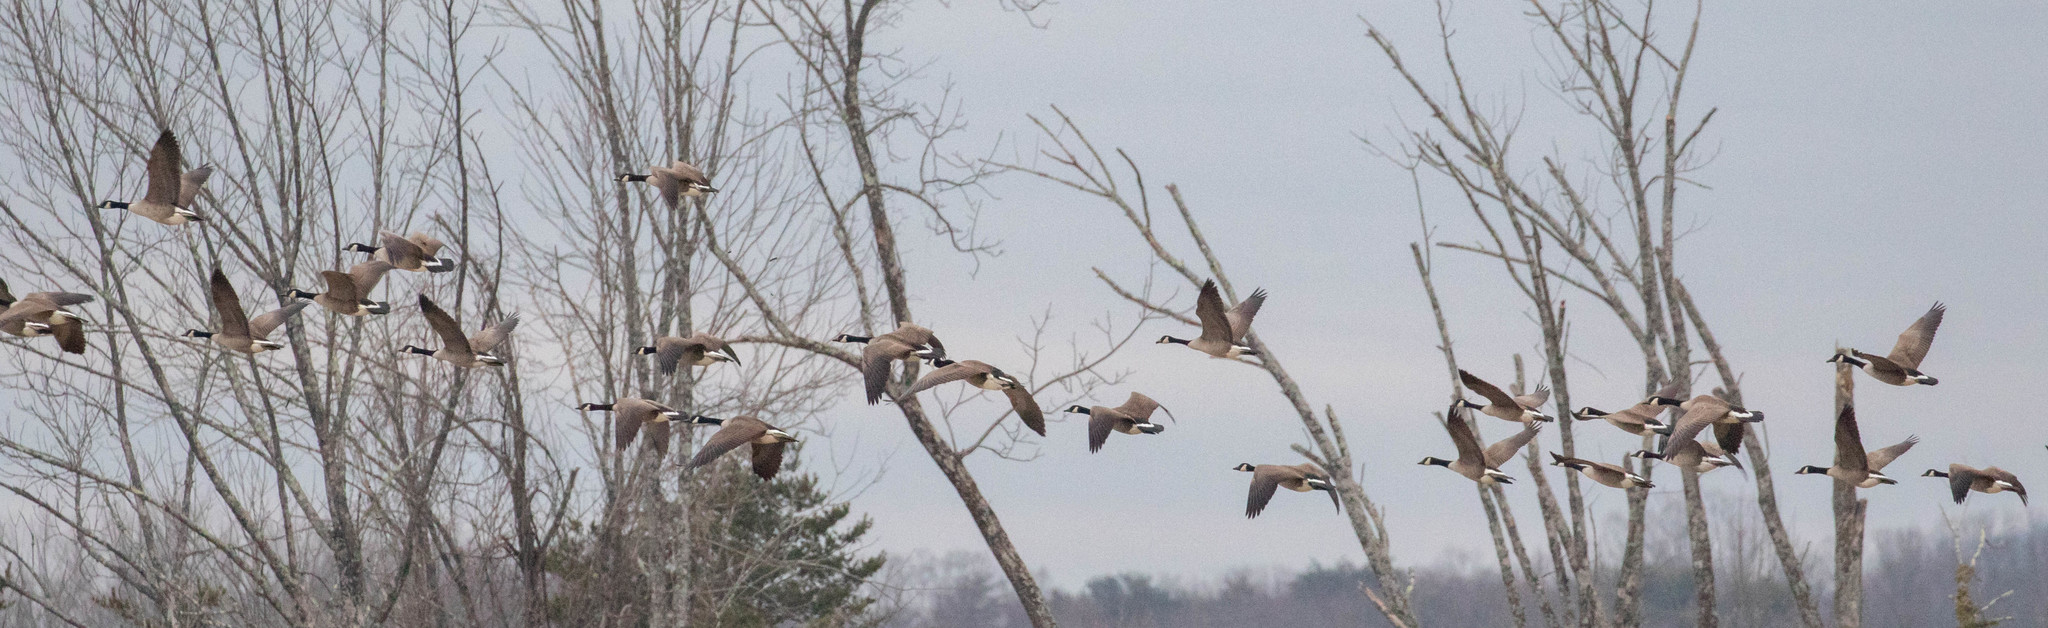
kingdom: Animalia
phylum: Chordata
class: Aves
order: Anseriformes
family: Anatidae
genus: Branta
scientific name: Branta canadensis
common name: Canada goose
